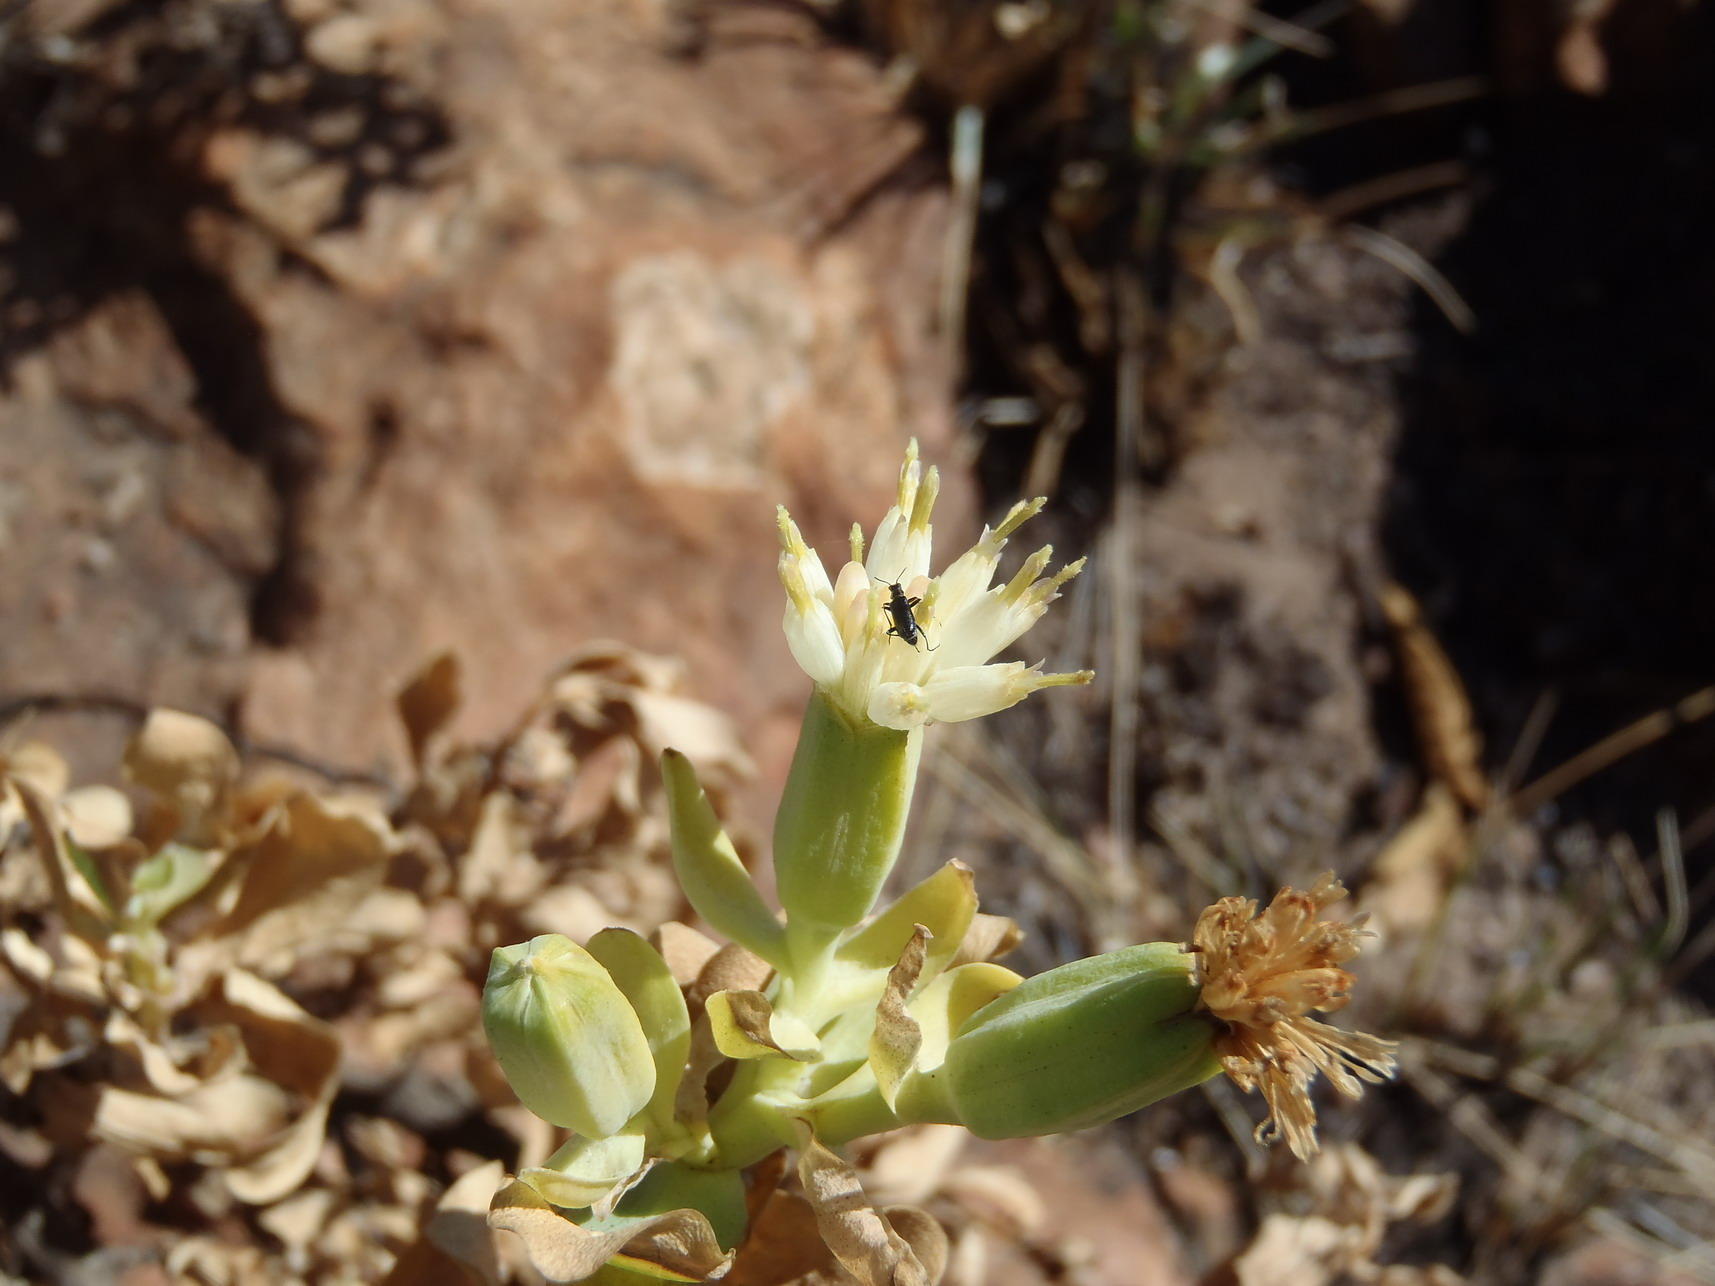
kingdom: Plantae
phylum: Tracheophyta
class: Magnoliopsida
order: Asterales
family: Asteraceae
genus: Lopholaena
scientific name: Lopholaena coriifolia
